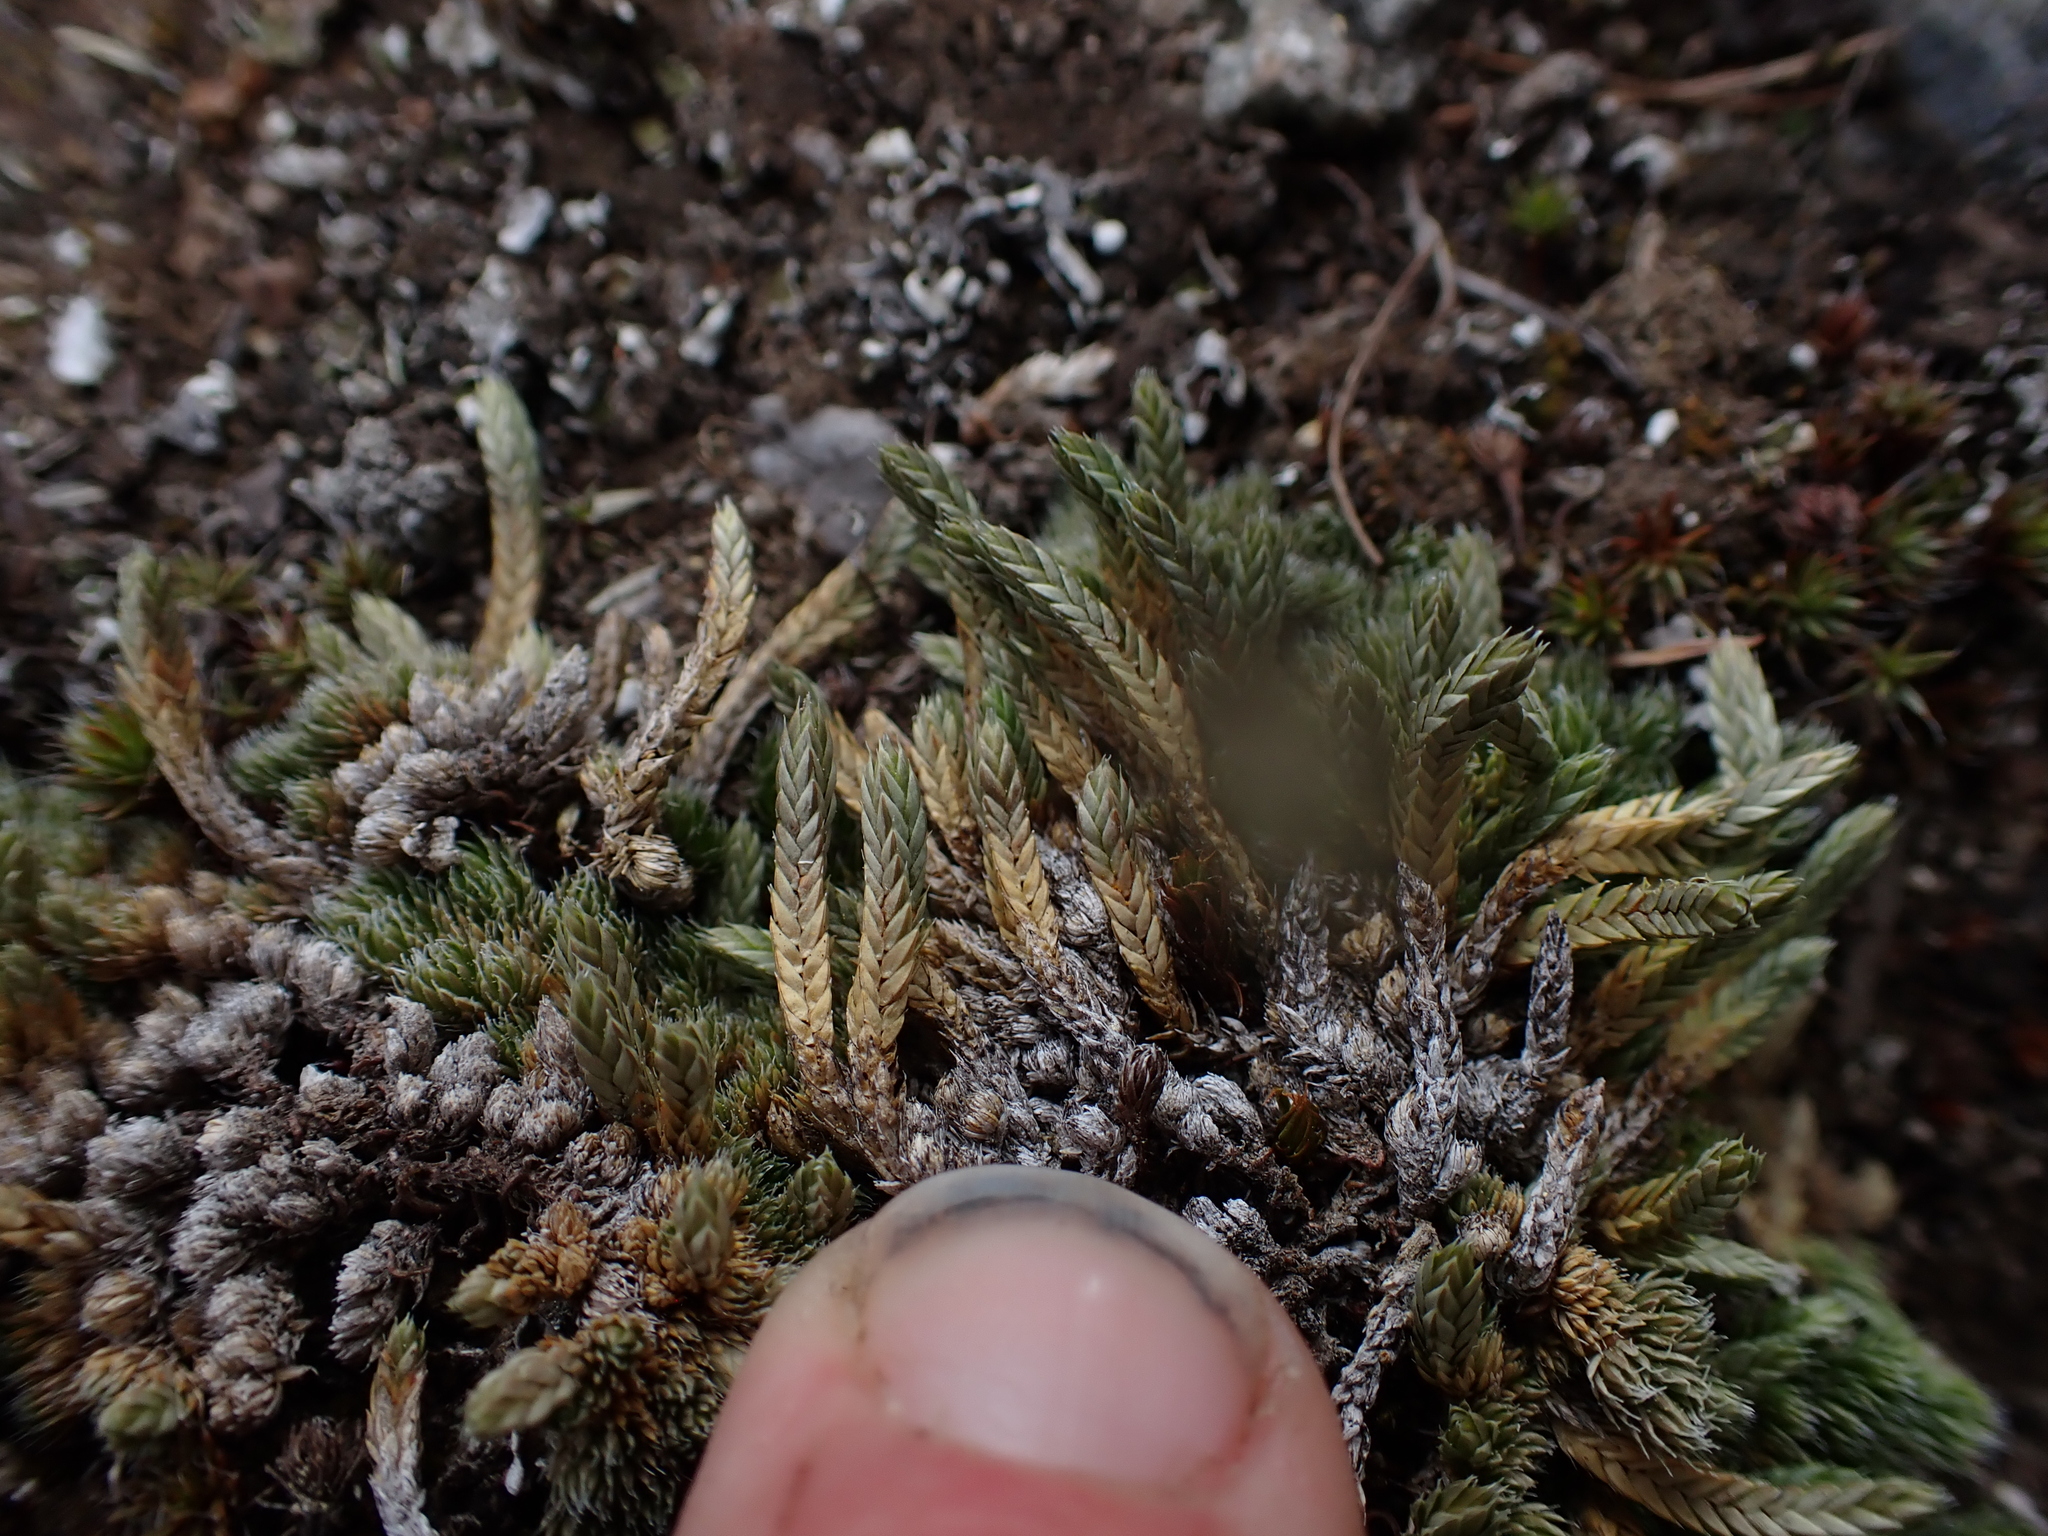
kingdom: Plantae
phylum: Tracheophyta
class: Lycopodiopsida
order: Selaginellales
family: Selaginellaceae
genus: Selaginella
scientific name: Selaginella densa
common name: Mountain spike-moss
